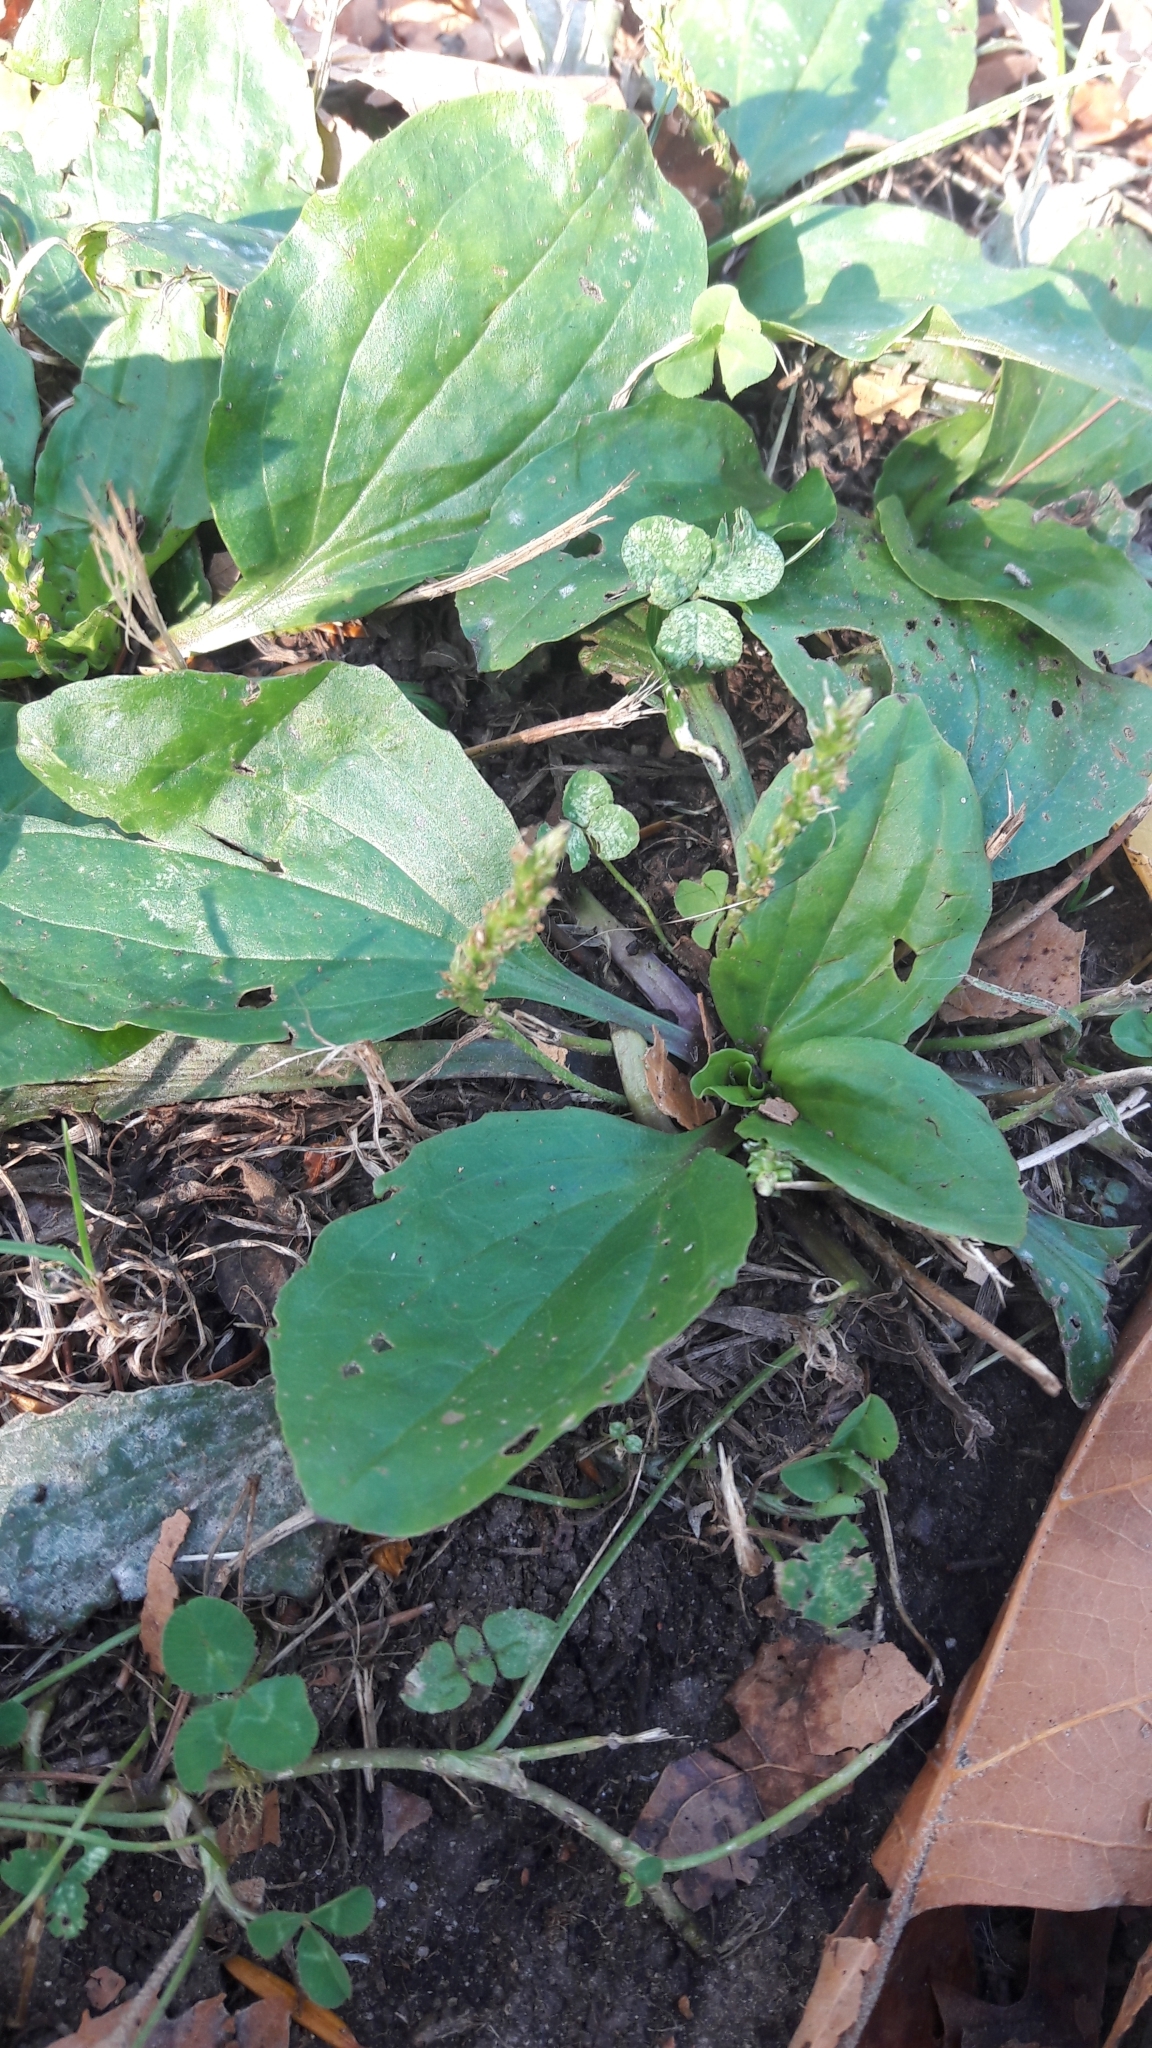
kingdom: Plantae
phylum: Tracheophyta
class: Magnoliopsida
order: Lamiales
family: Plantaginaceae
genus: Plantago
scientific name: Plantago
